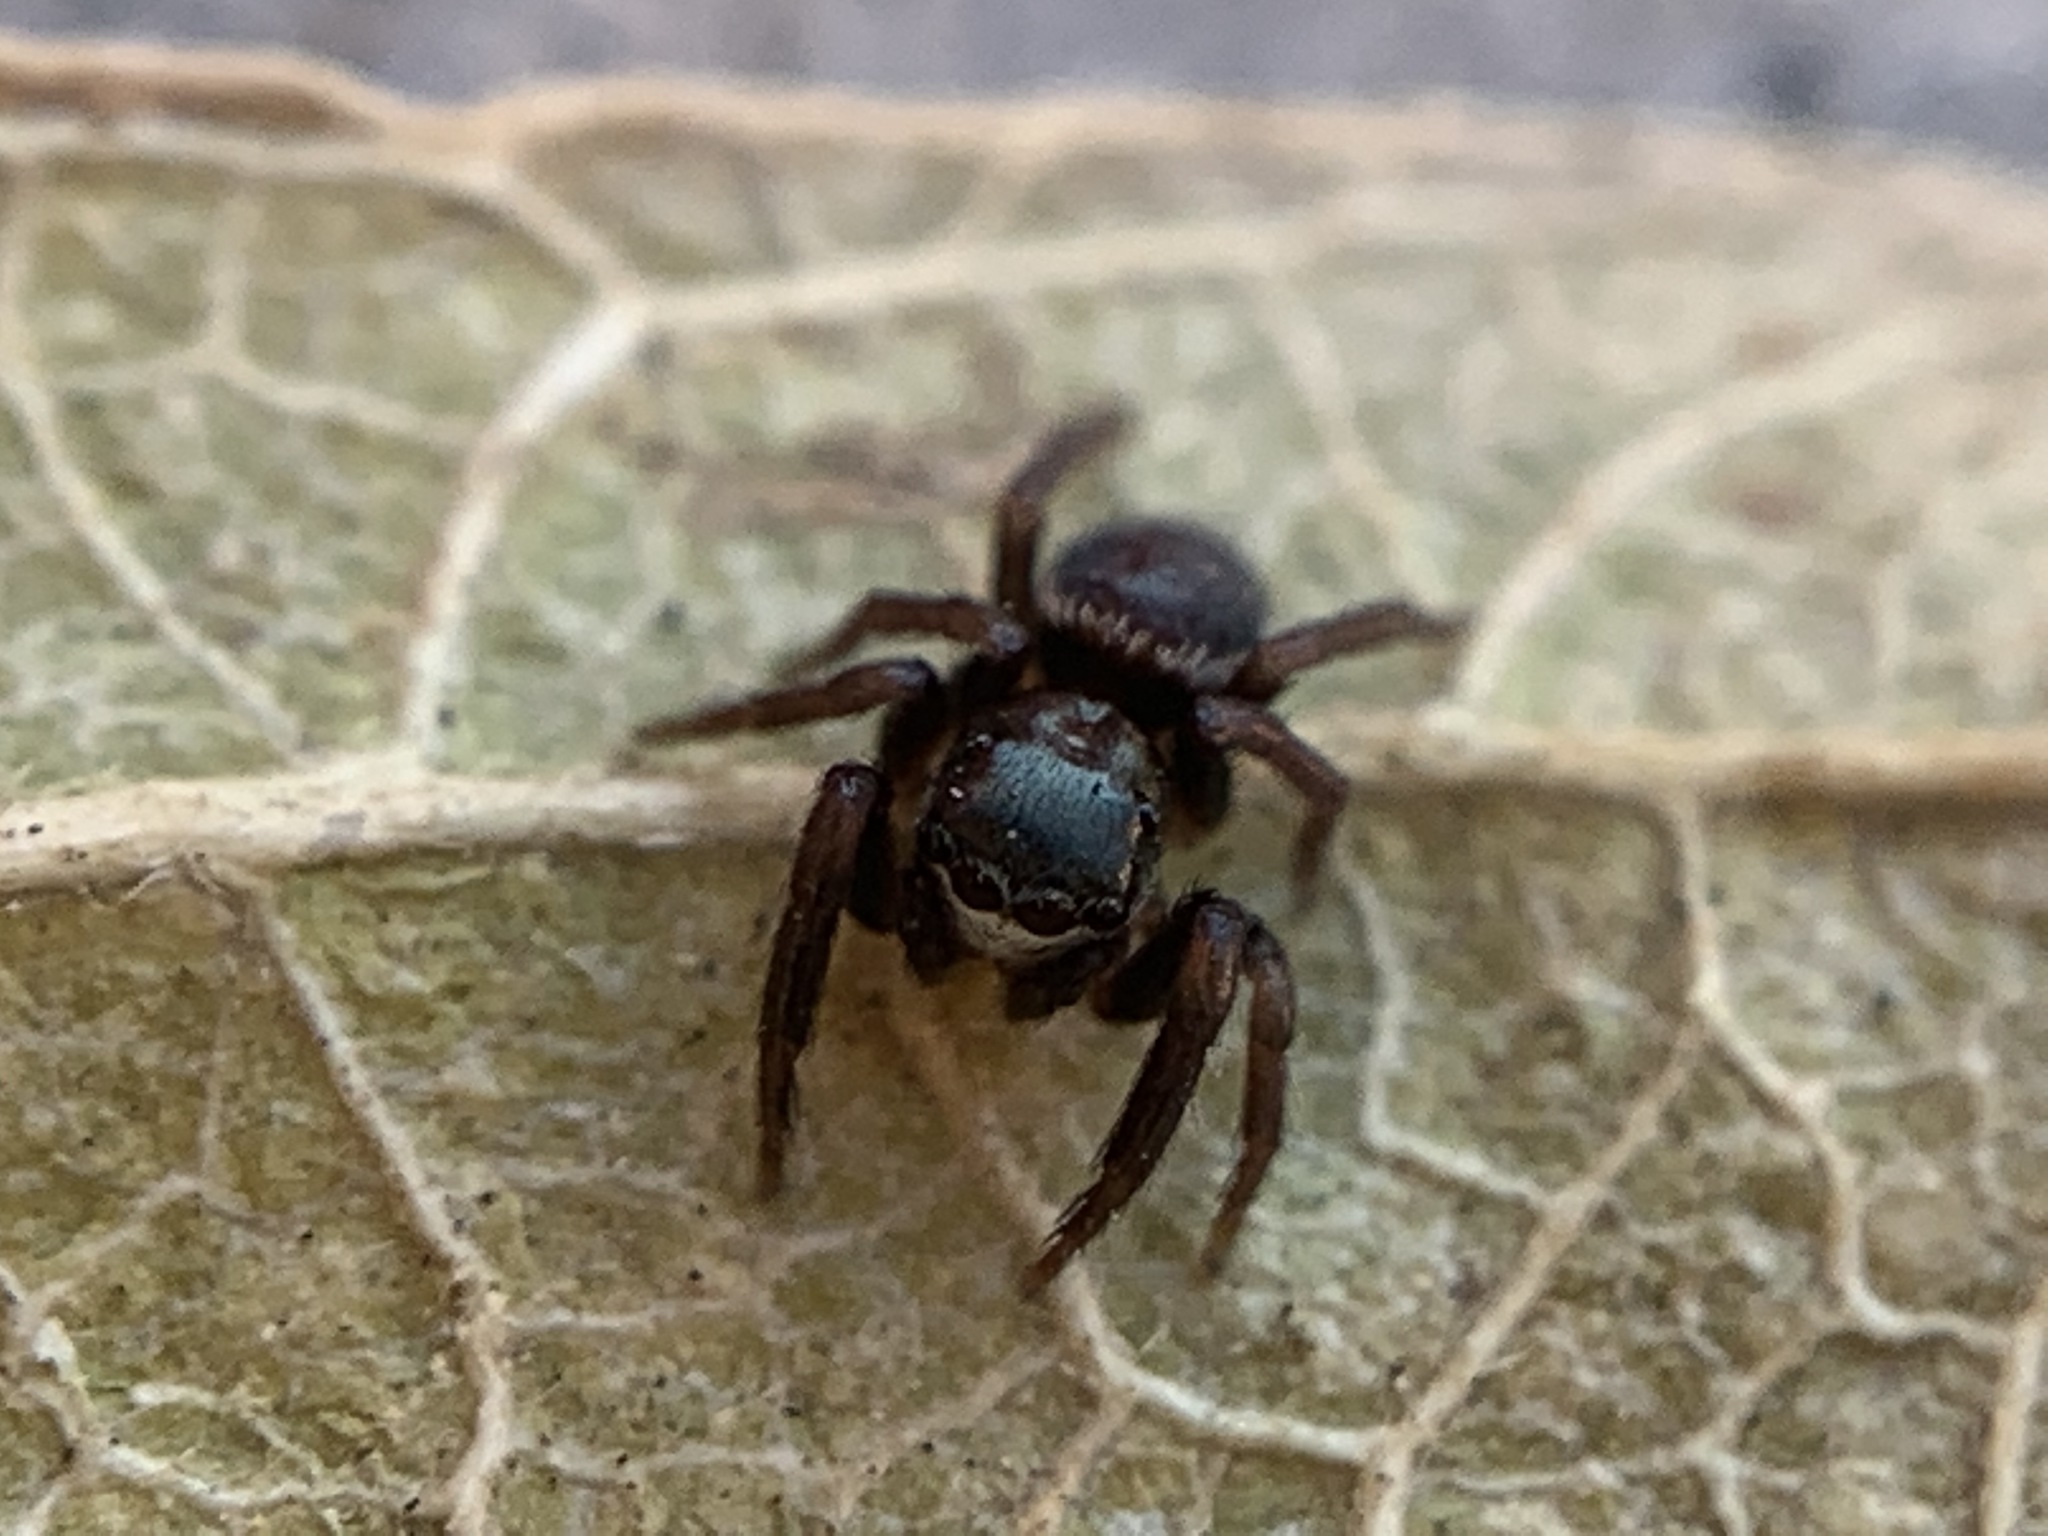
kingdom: Animalia
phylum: Arthropoda
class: Arachnida
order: Araneae
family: Salticidae
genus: Chalcoscirtus
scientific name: Chalcoscirtus diminutus
